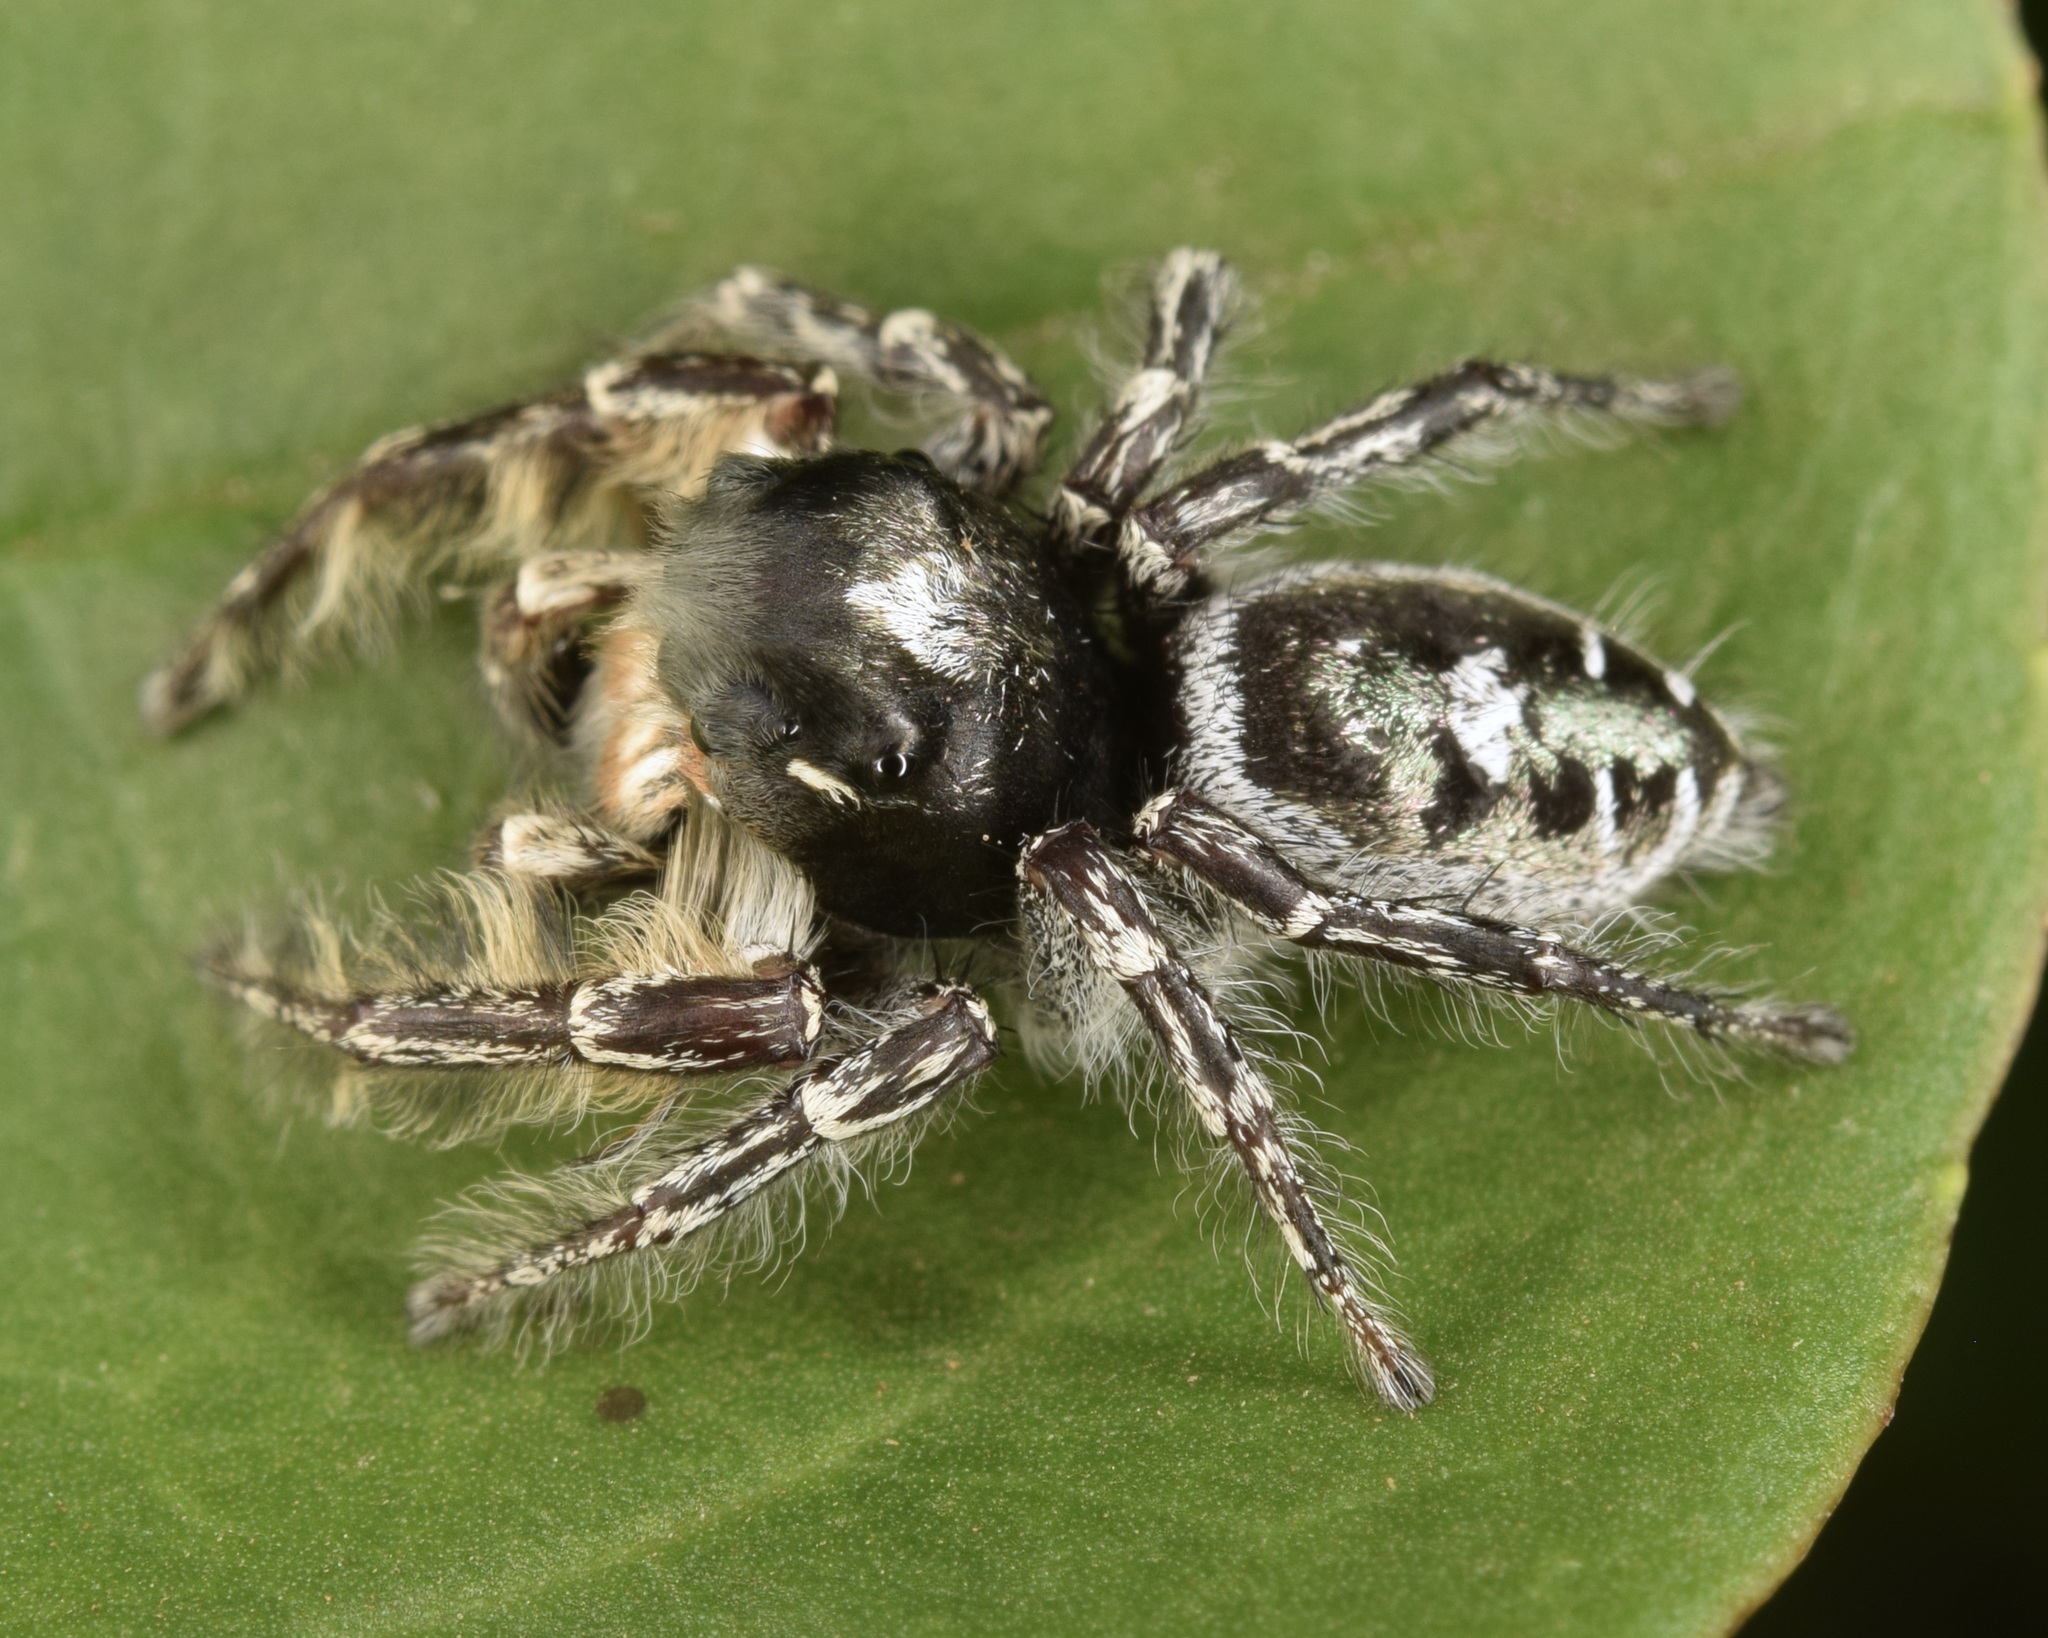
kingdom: Animalia
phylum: Arthropoda
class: Arachnida
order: Araneae
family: Salticidae
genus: Phidippus
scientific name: Phidippus putnami
